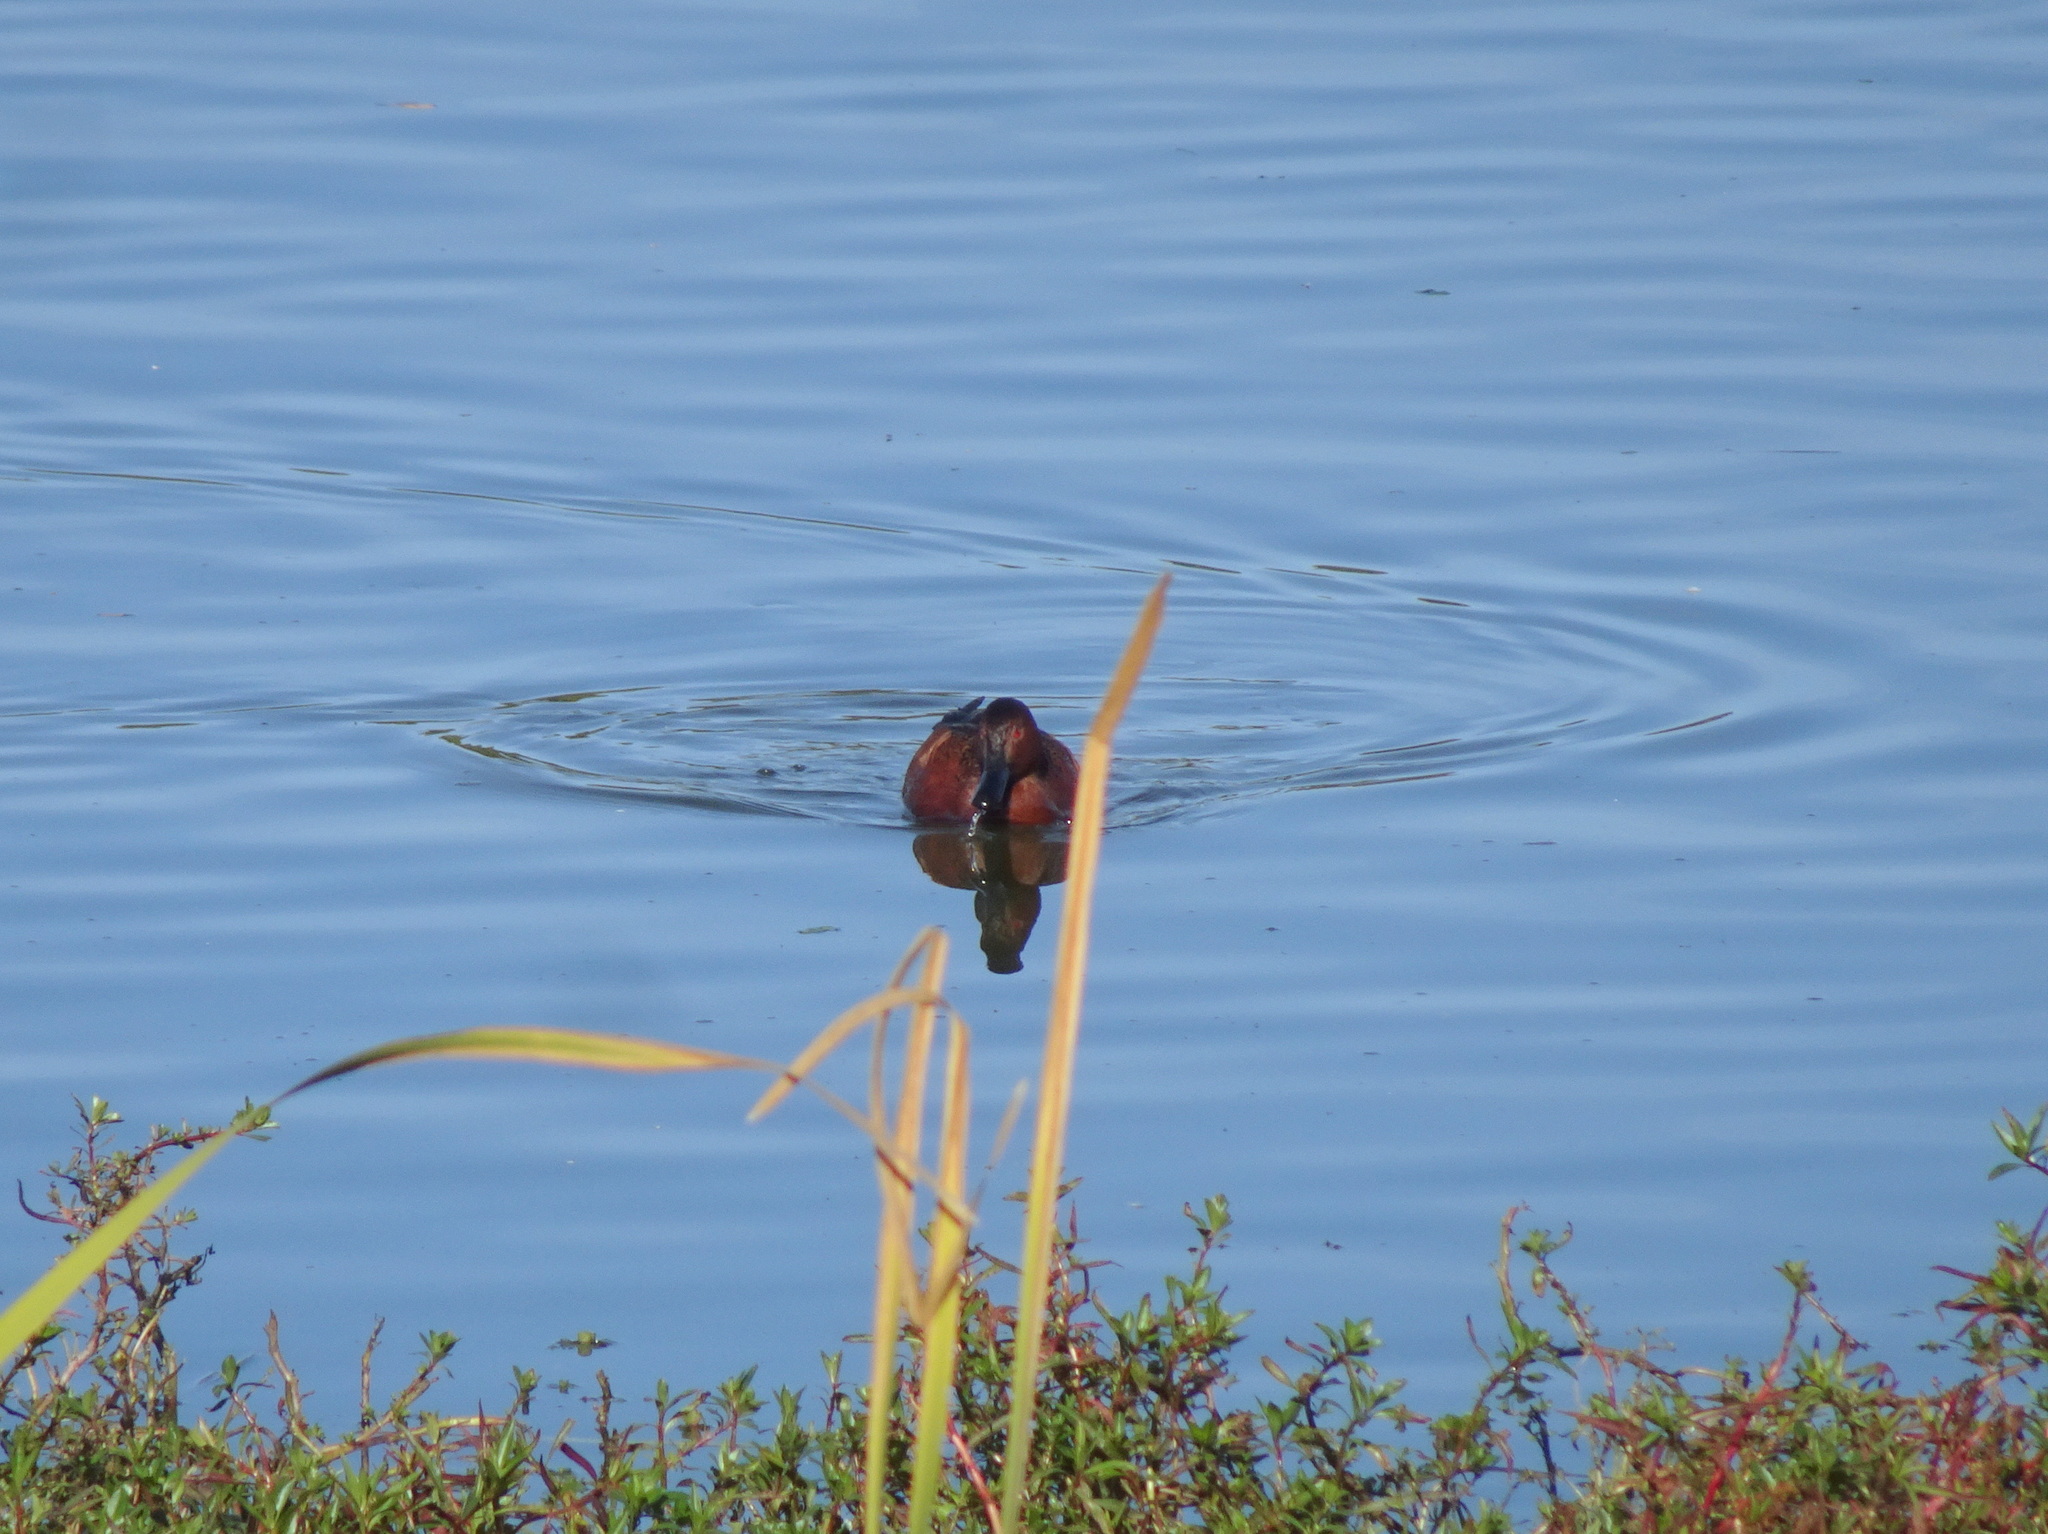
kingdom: Animalia
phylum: Chordata
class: Aves
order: Anseriformes
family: Anatidae
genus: Spatula
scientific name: Spatula cyanoptera
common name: Cinnamon teal
